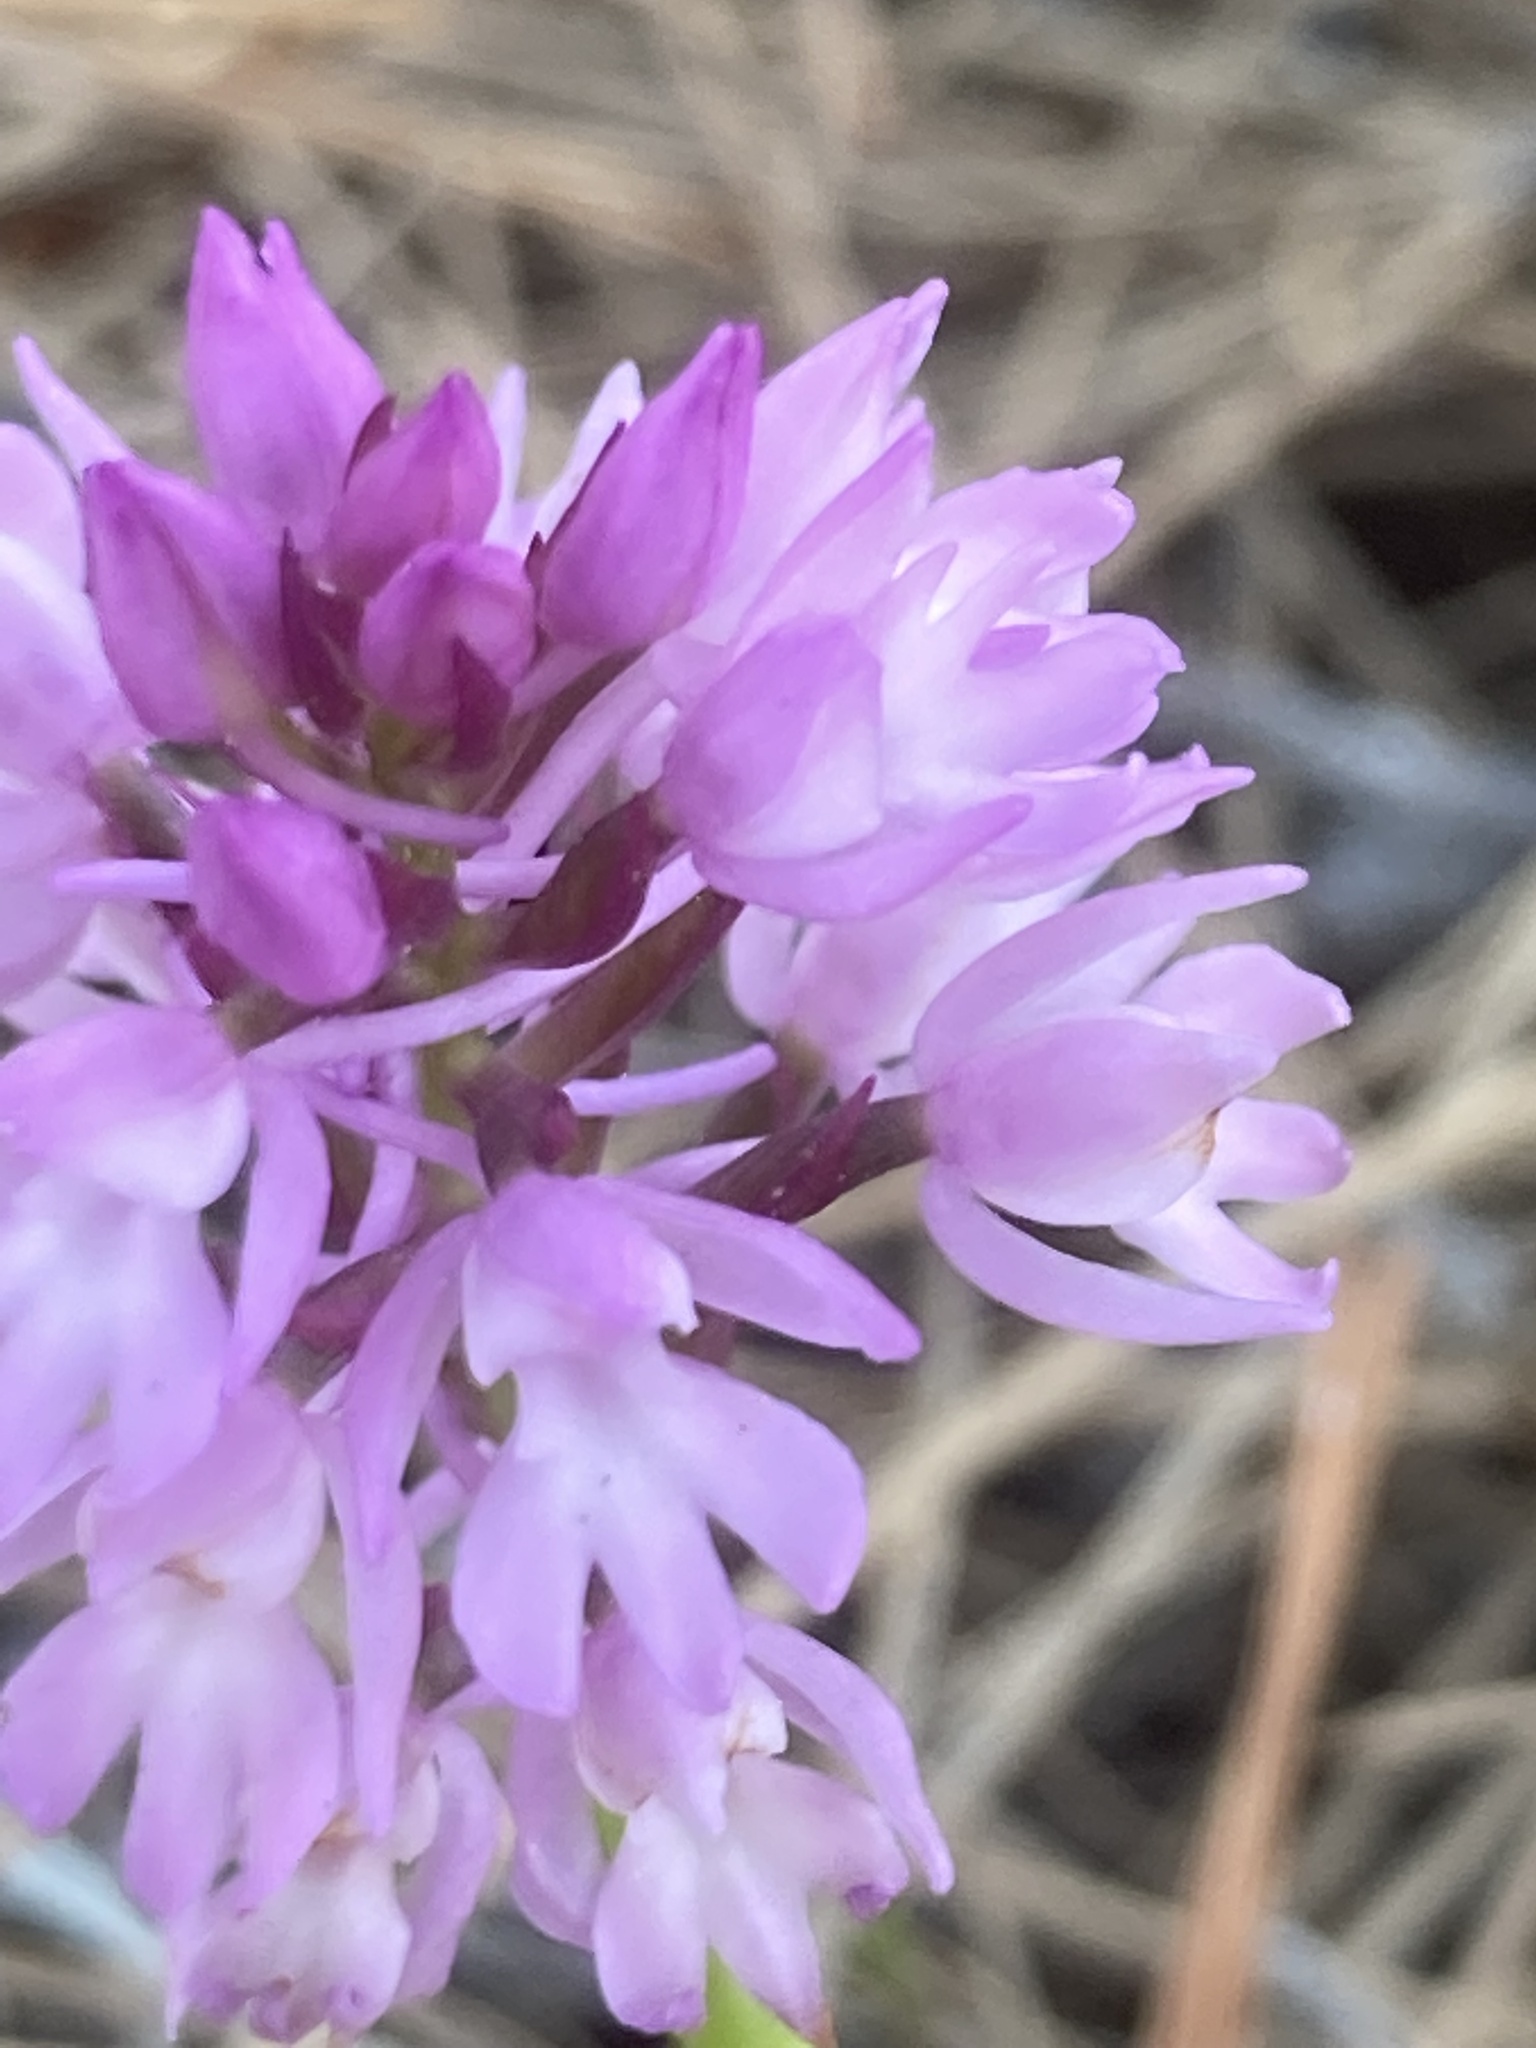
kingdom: Plantae
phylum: Tracheophyta
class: Liliopsida
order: Asparagales
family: Orchidaceae
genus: Anacamptis
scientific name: Anacamptis pyramidalis
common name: Pyramidal orchid
